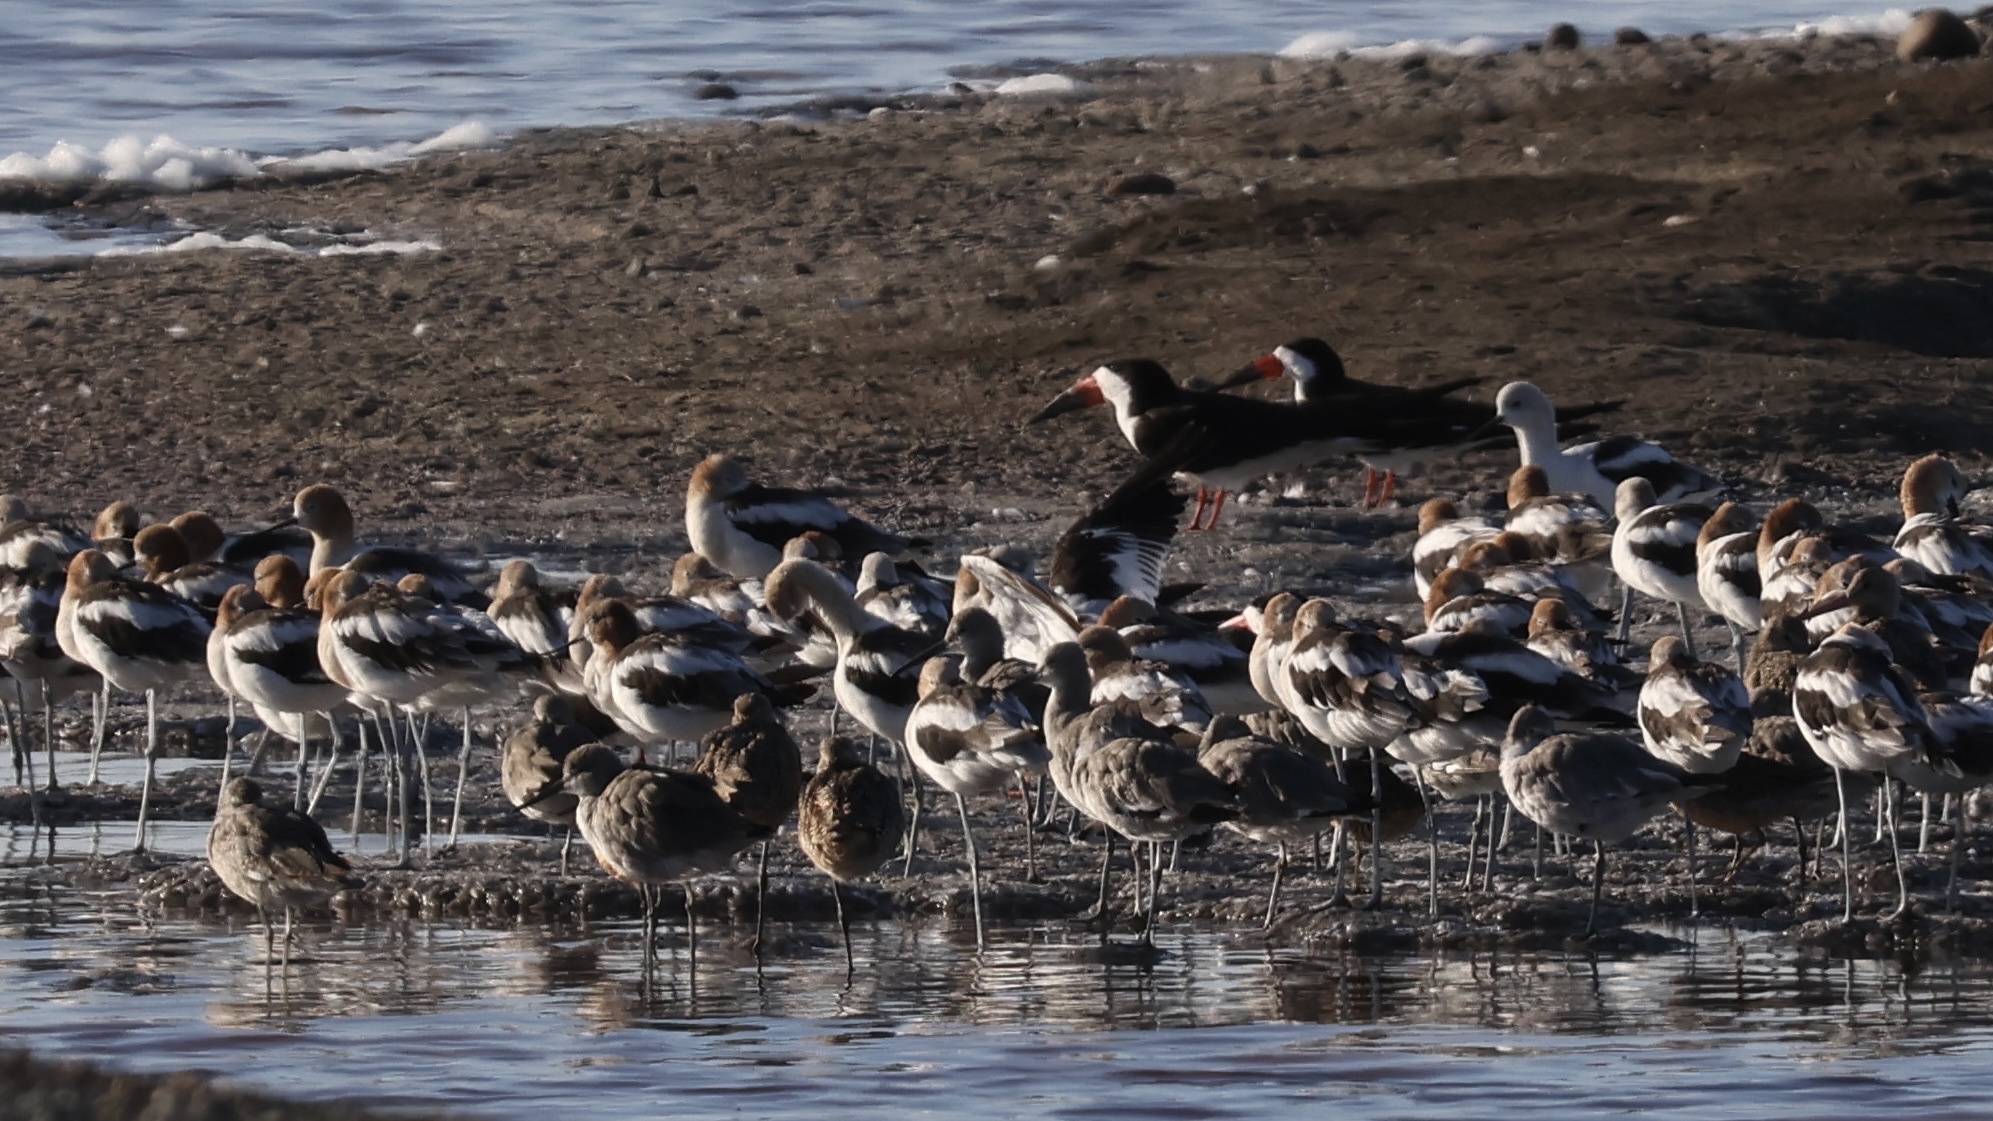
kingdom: Animalia
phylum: Chordata
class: Aves
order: Charadriiformes
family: Recurvirostridae
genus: Recurvirostra
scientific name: Recurvirostra americana
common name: American avocet
